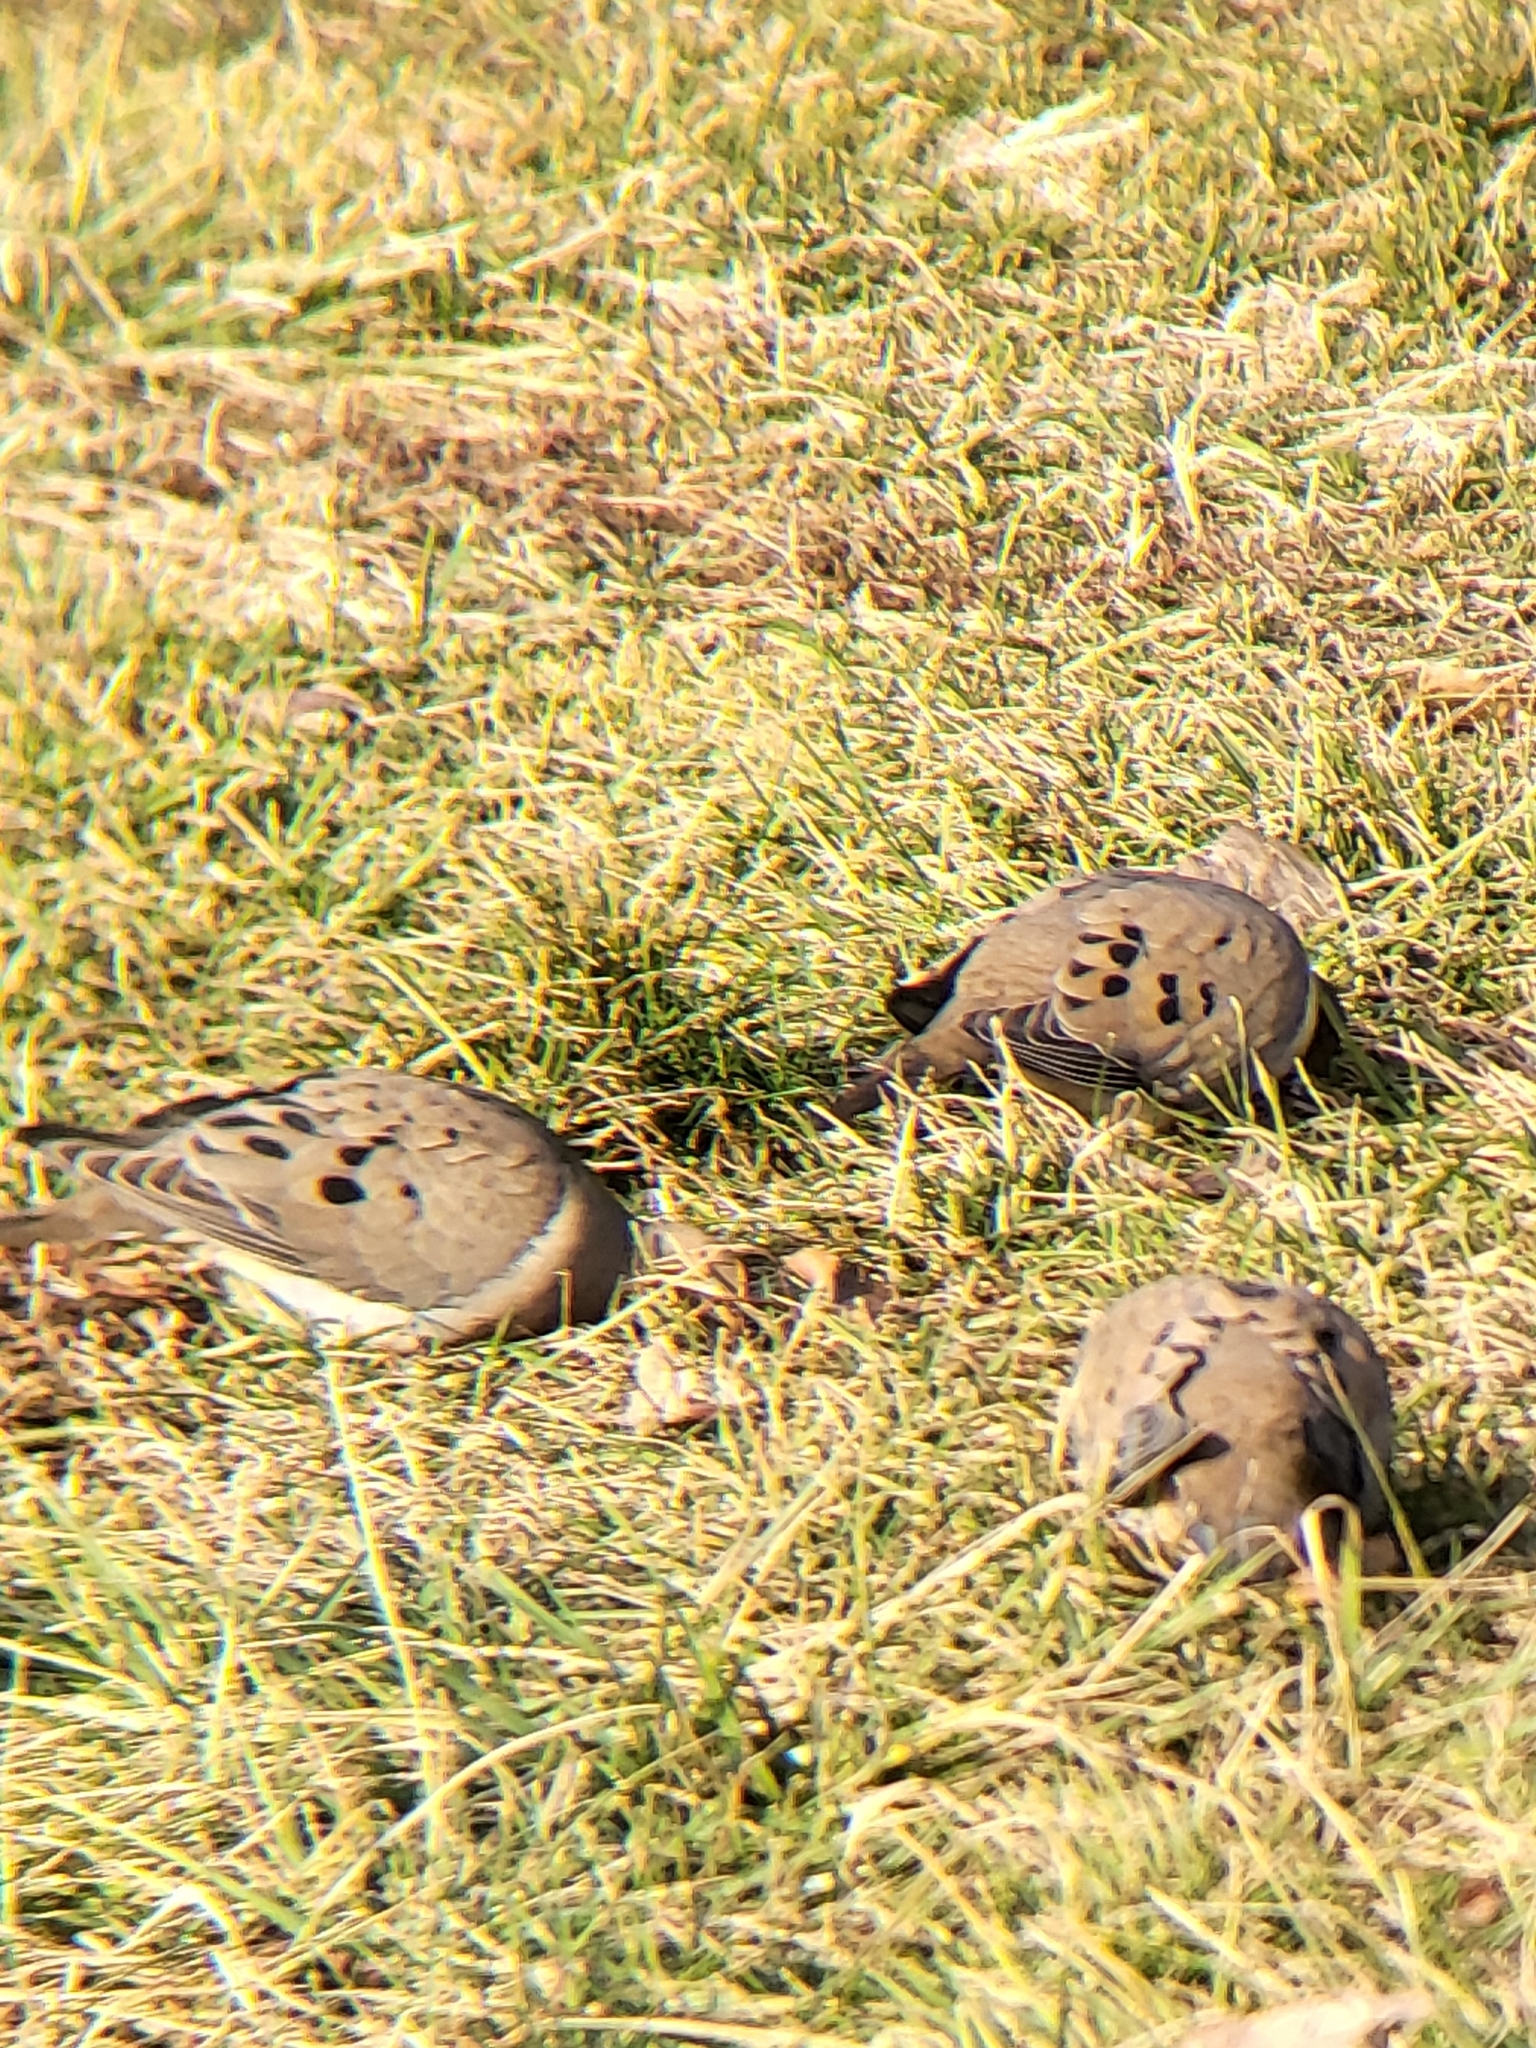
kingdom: Animalia
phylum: Chordata
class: Aves
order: Columbiformes
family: Columbidae
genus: Zenaida
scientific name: Zenaida macroura
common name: Mourning dove
